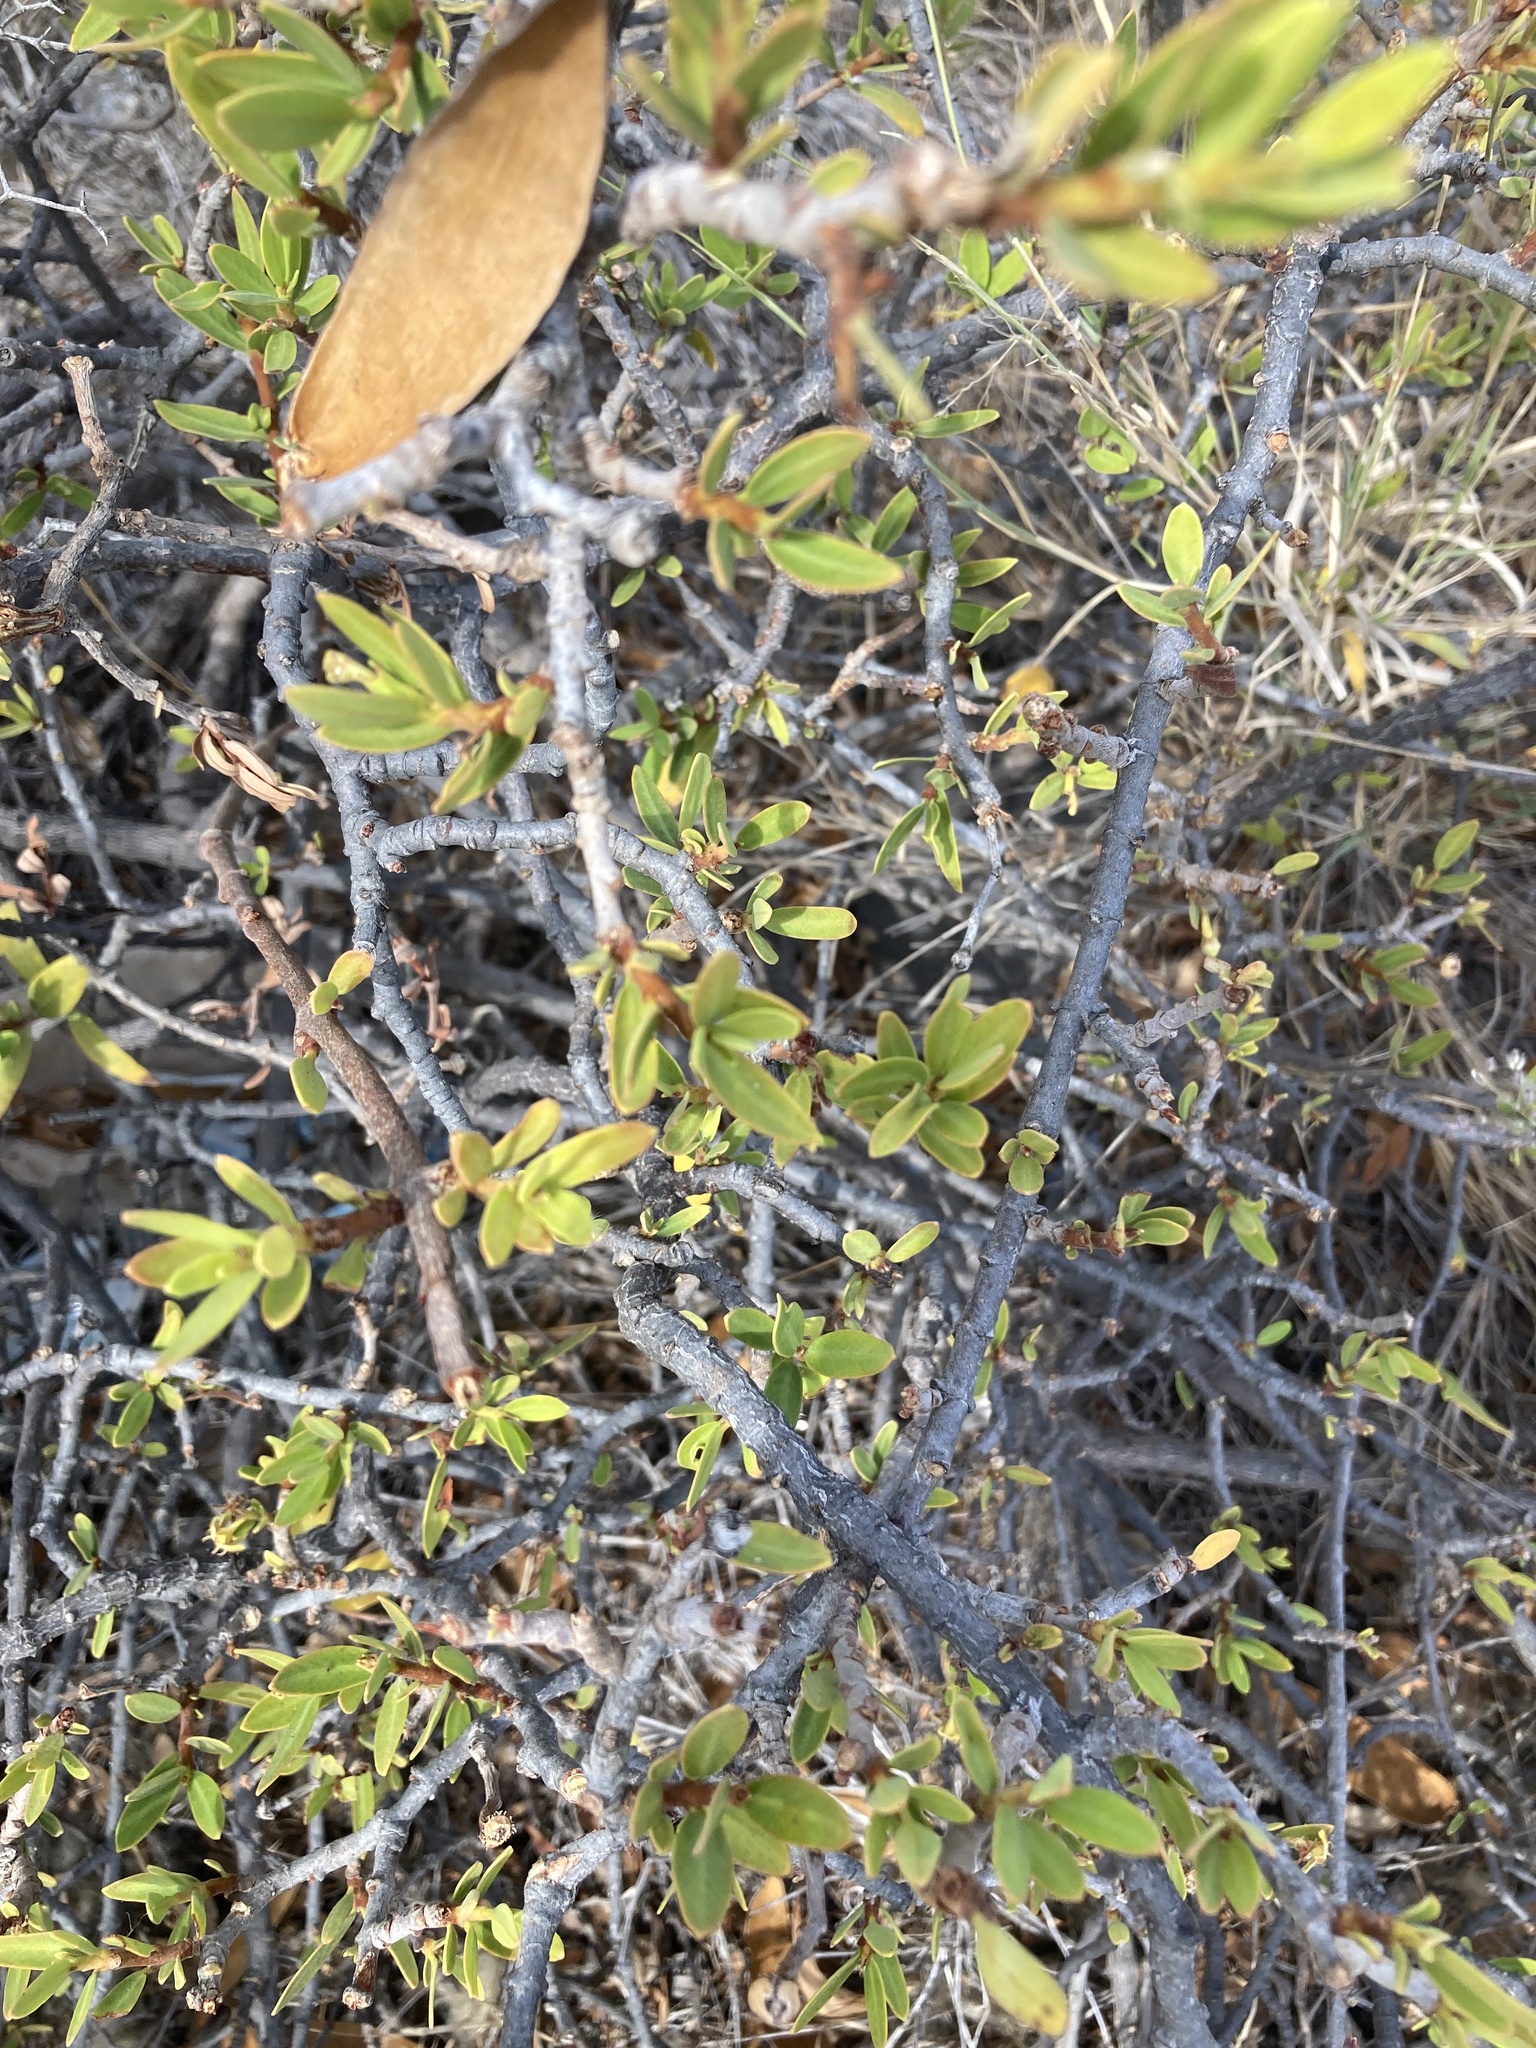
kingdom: Plantae
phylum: Tracheophyta
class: Magnoliopsida
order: Gentianales
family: Apocynaceae
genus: Periploca
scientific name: Periploca laevigata
